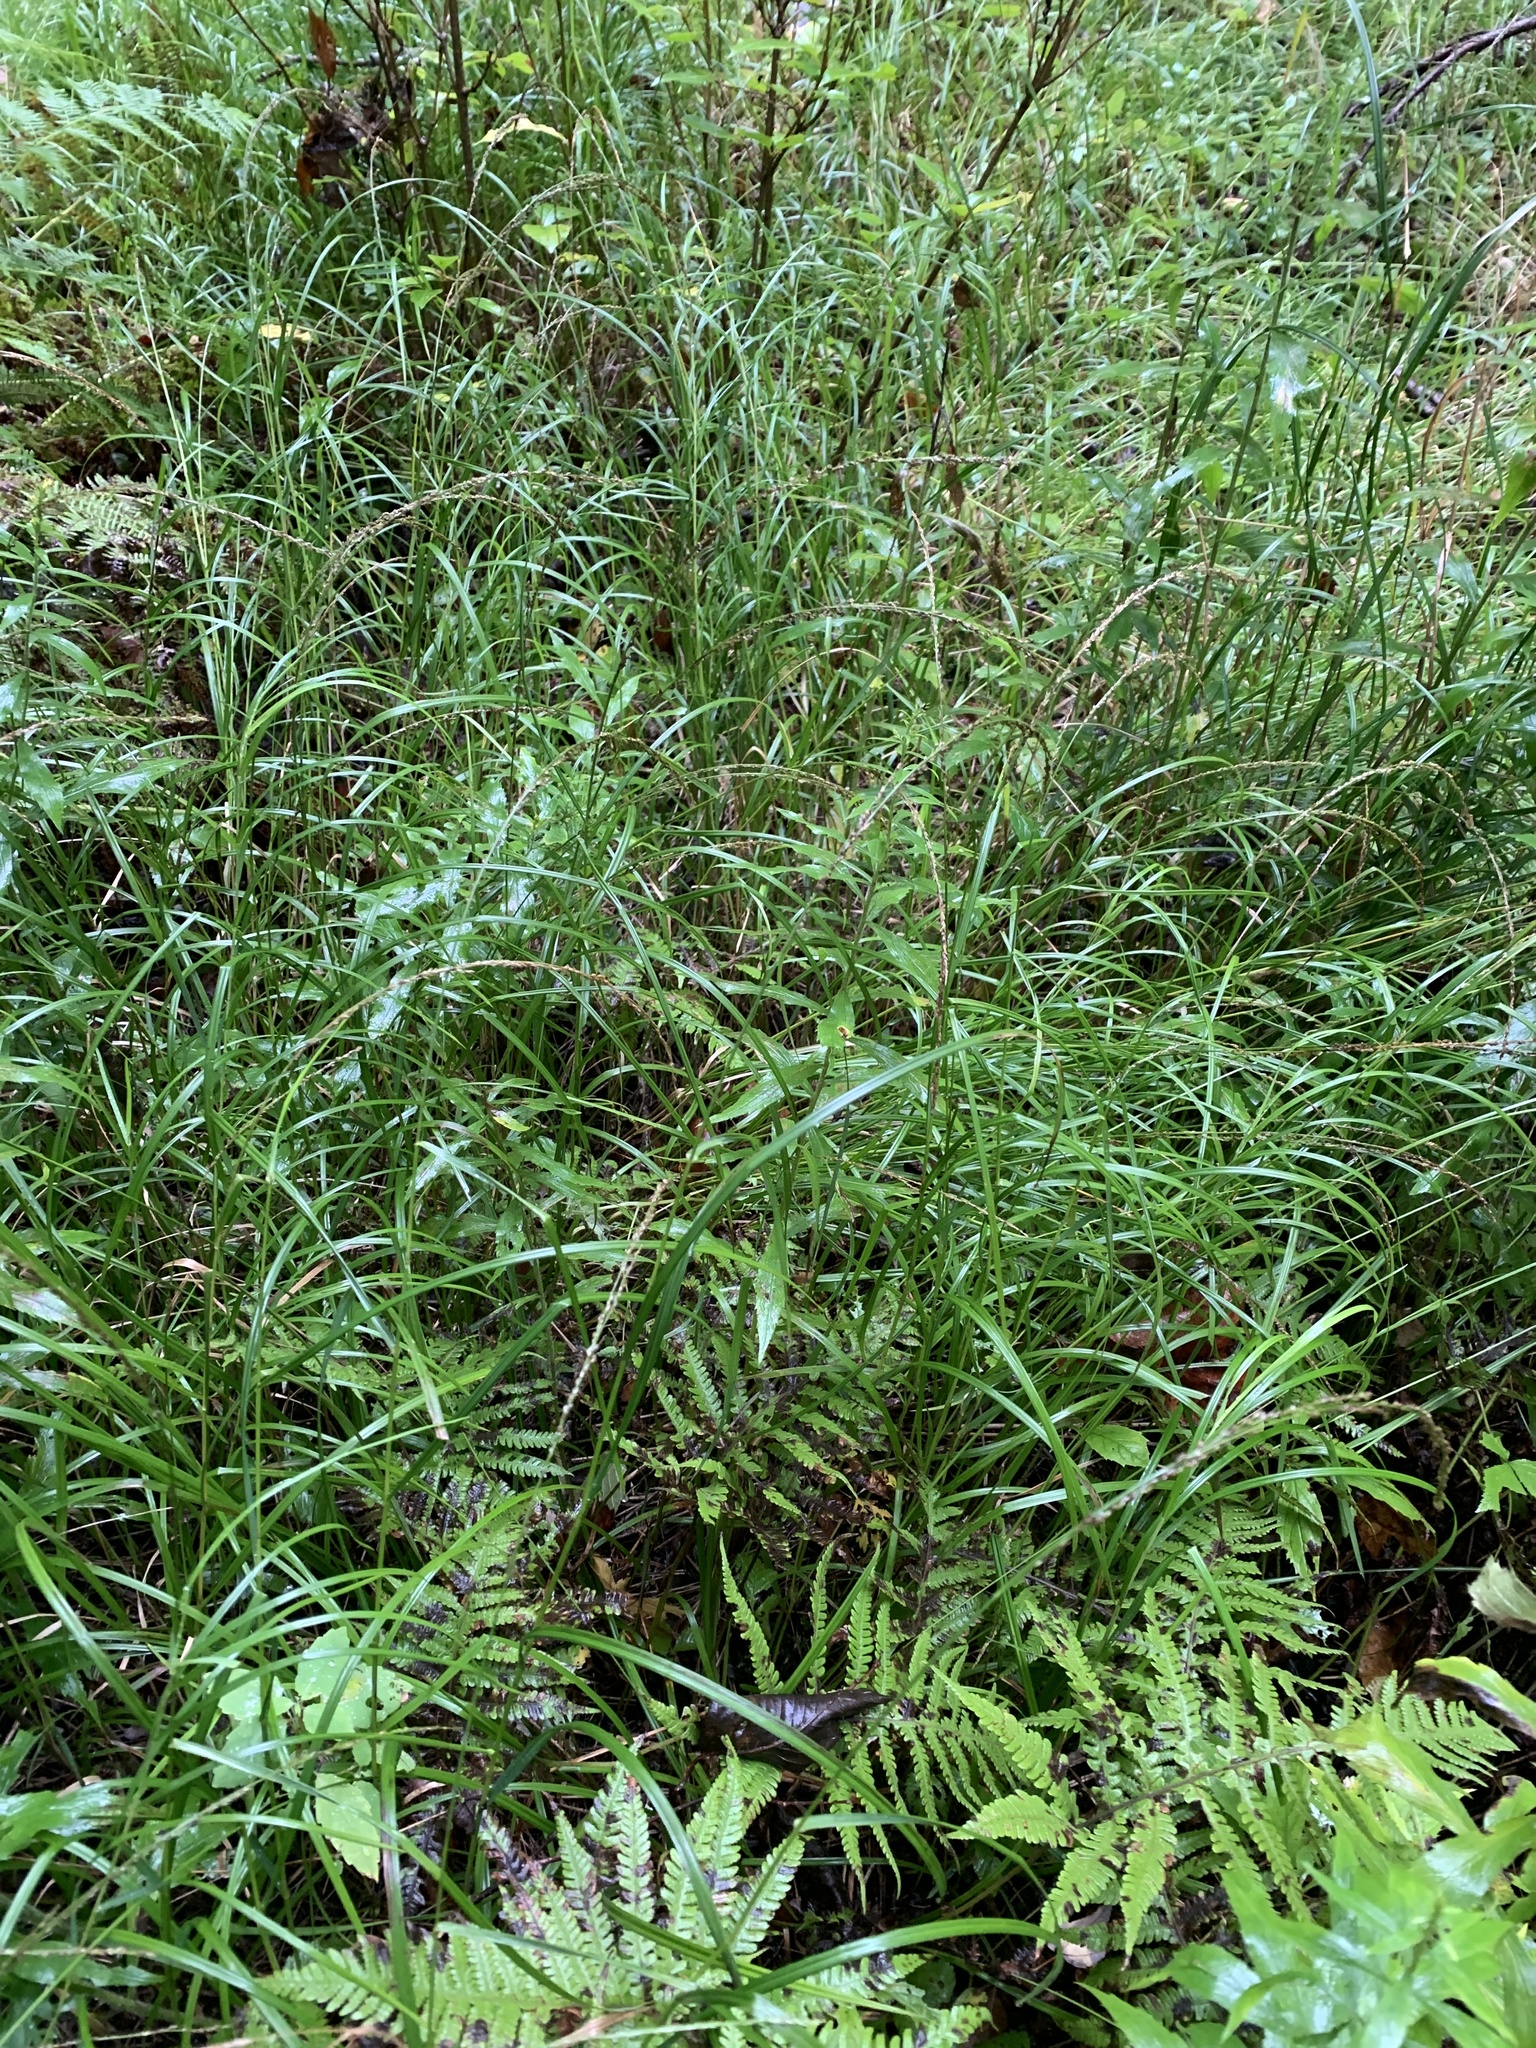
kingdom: Plantae
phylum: Tracheophyta
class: Liliopsida
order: Poales
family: Poaceae
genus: Glyceria
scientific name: Glyceria melicaria
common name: Long mannagrass
